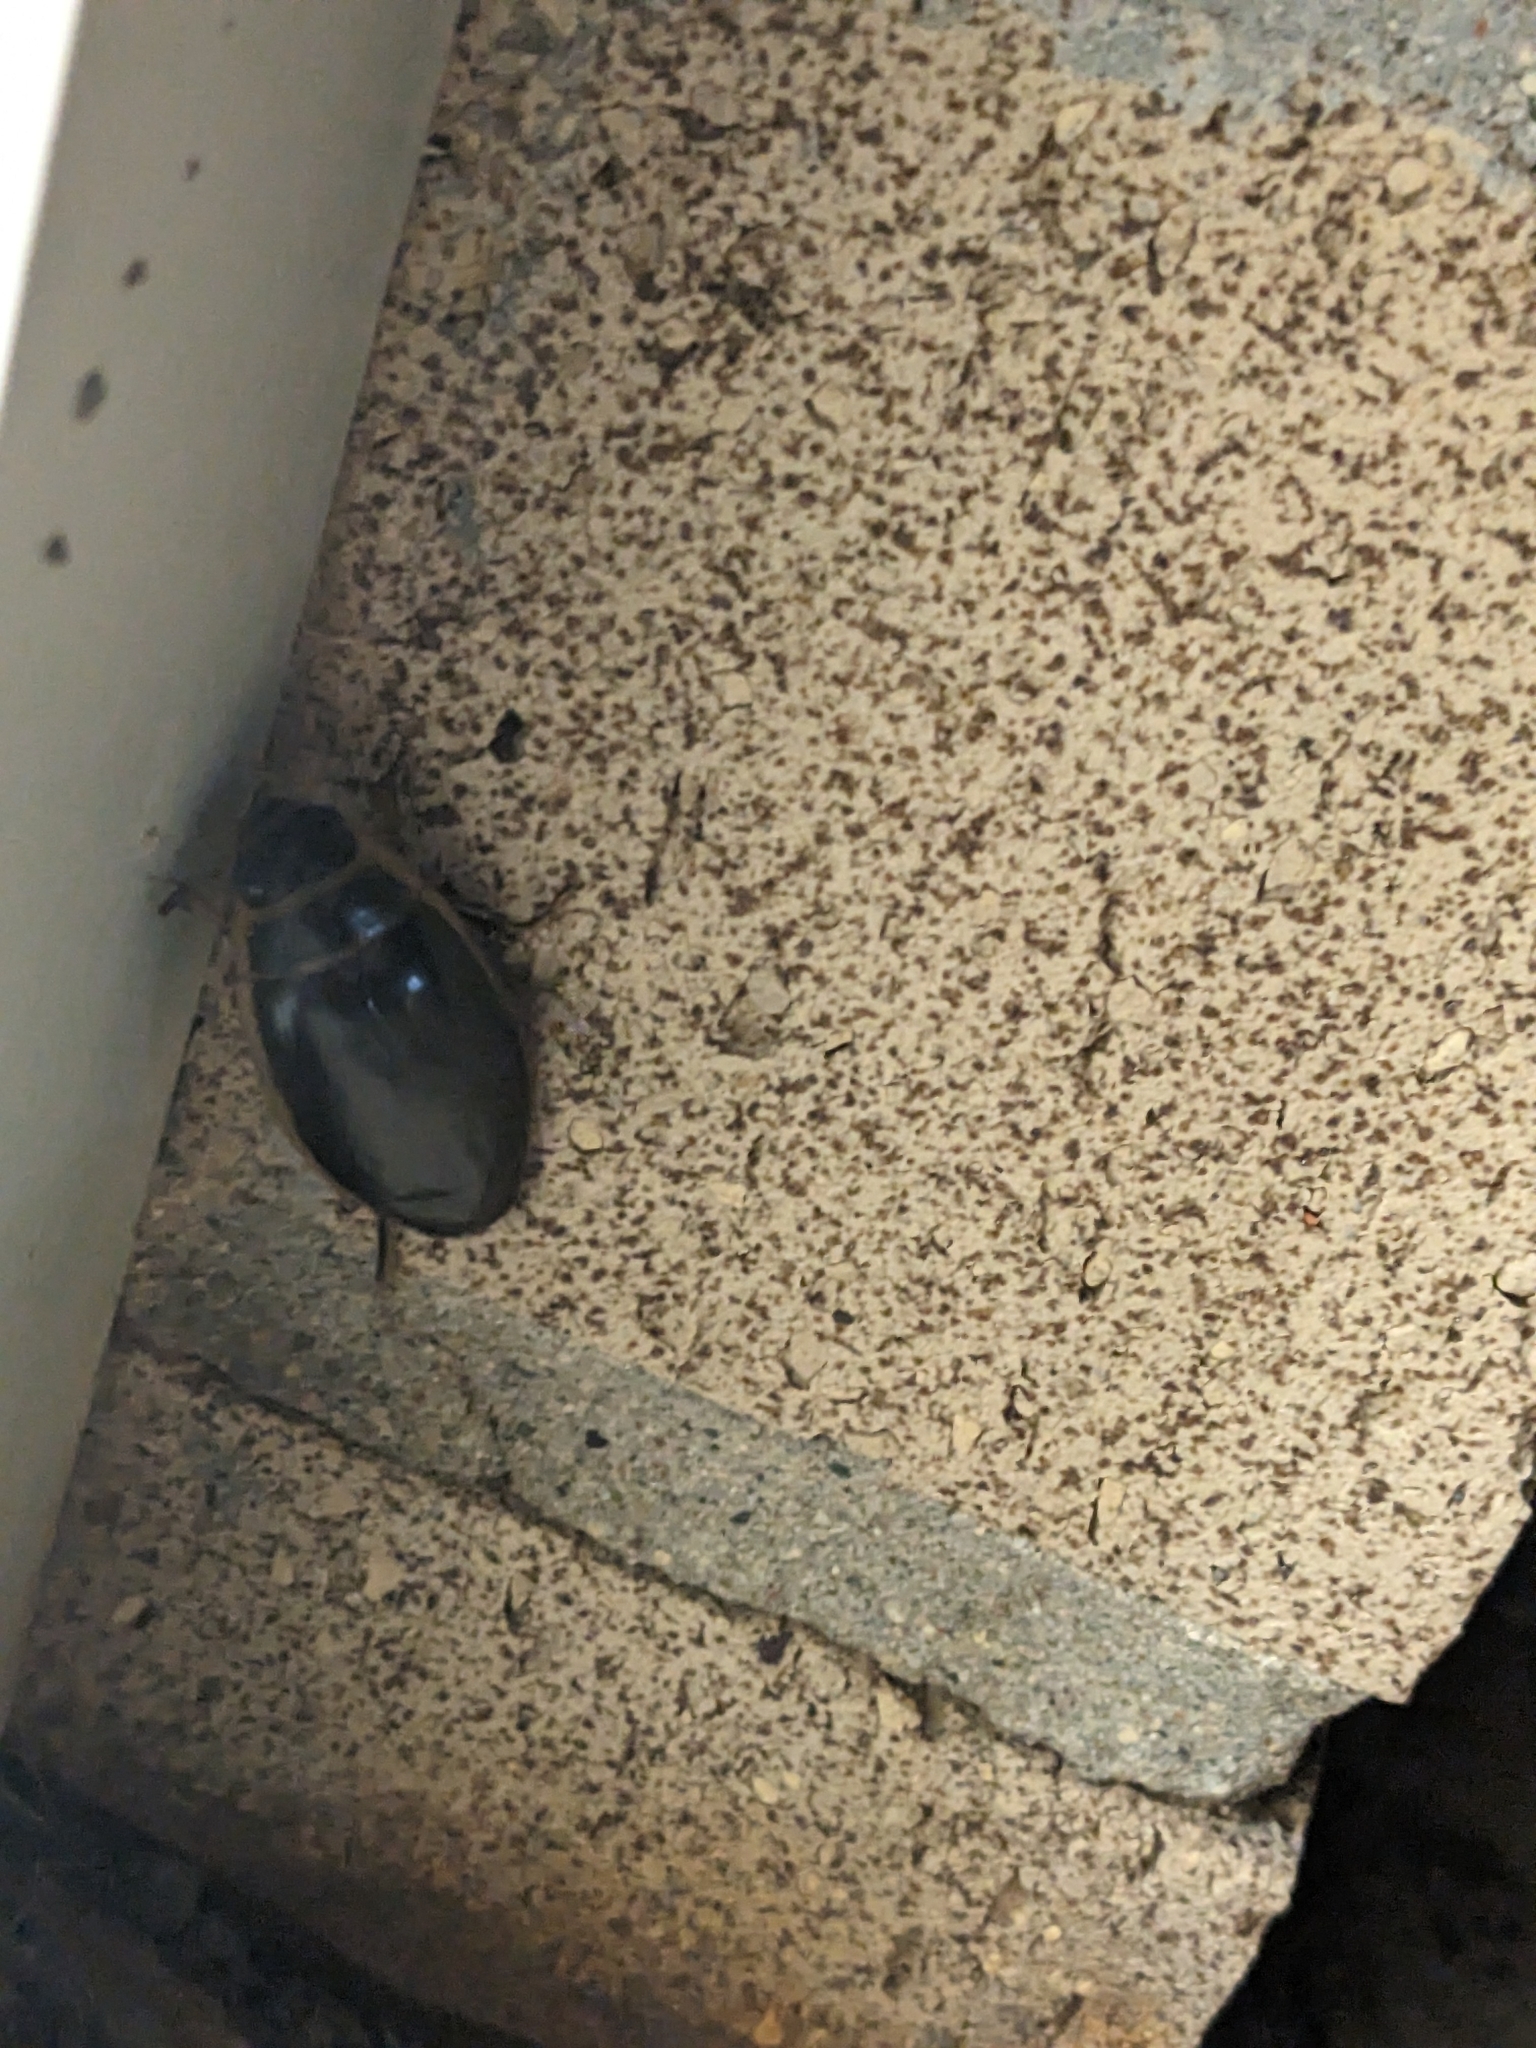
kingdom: Animalia
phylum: Arthropoda
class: Insecta
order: Coleoptera
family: Dytiscidae
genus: Dytiscus
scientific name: Dytiscus
